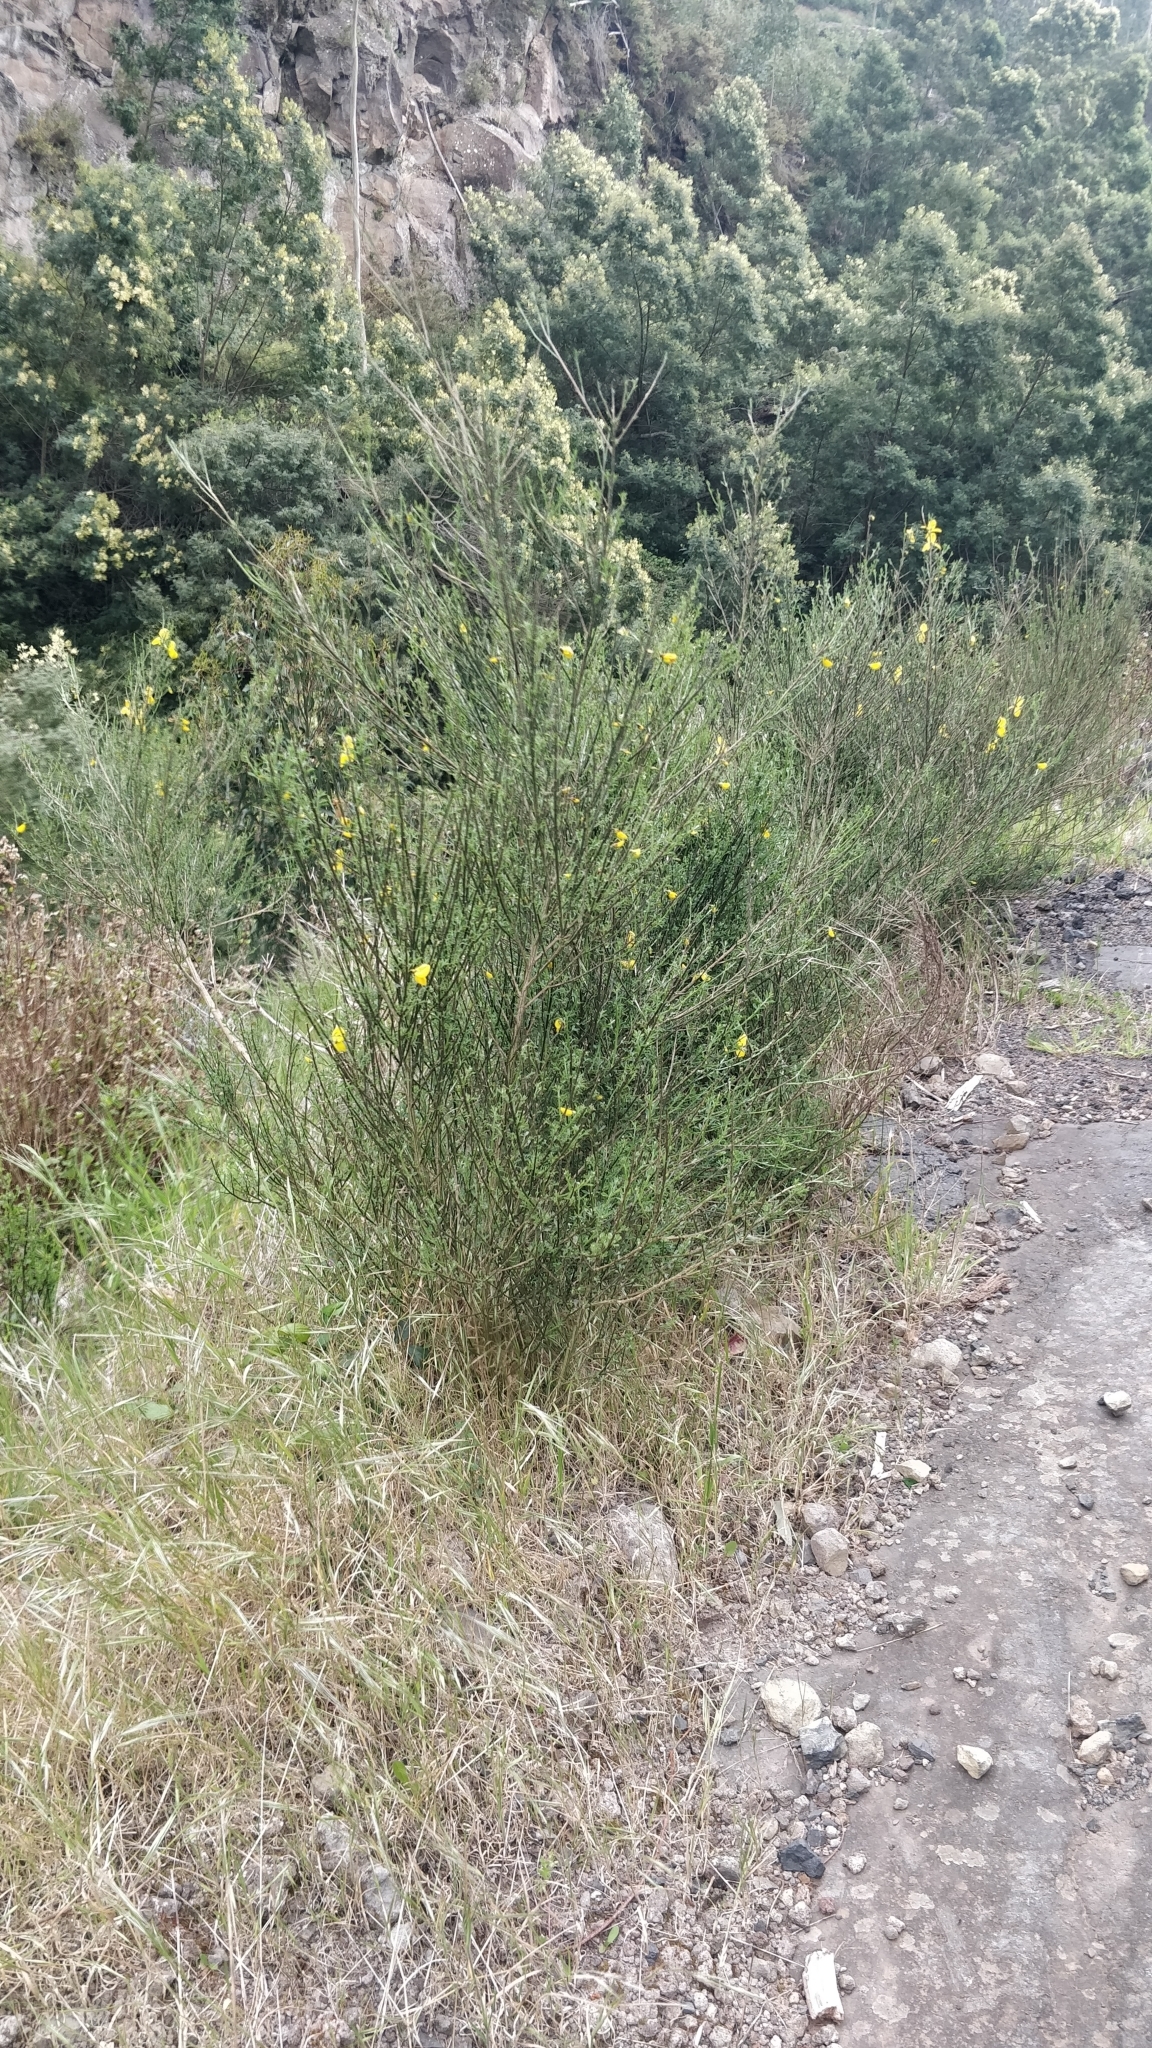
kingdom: Plantae
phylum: Tracheophyta
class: Magnoliopsida
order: Fabales
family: Fabaceae
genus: Cytisus
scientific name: Cytisus scoparius
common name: Scotch broom
